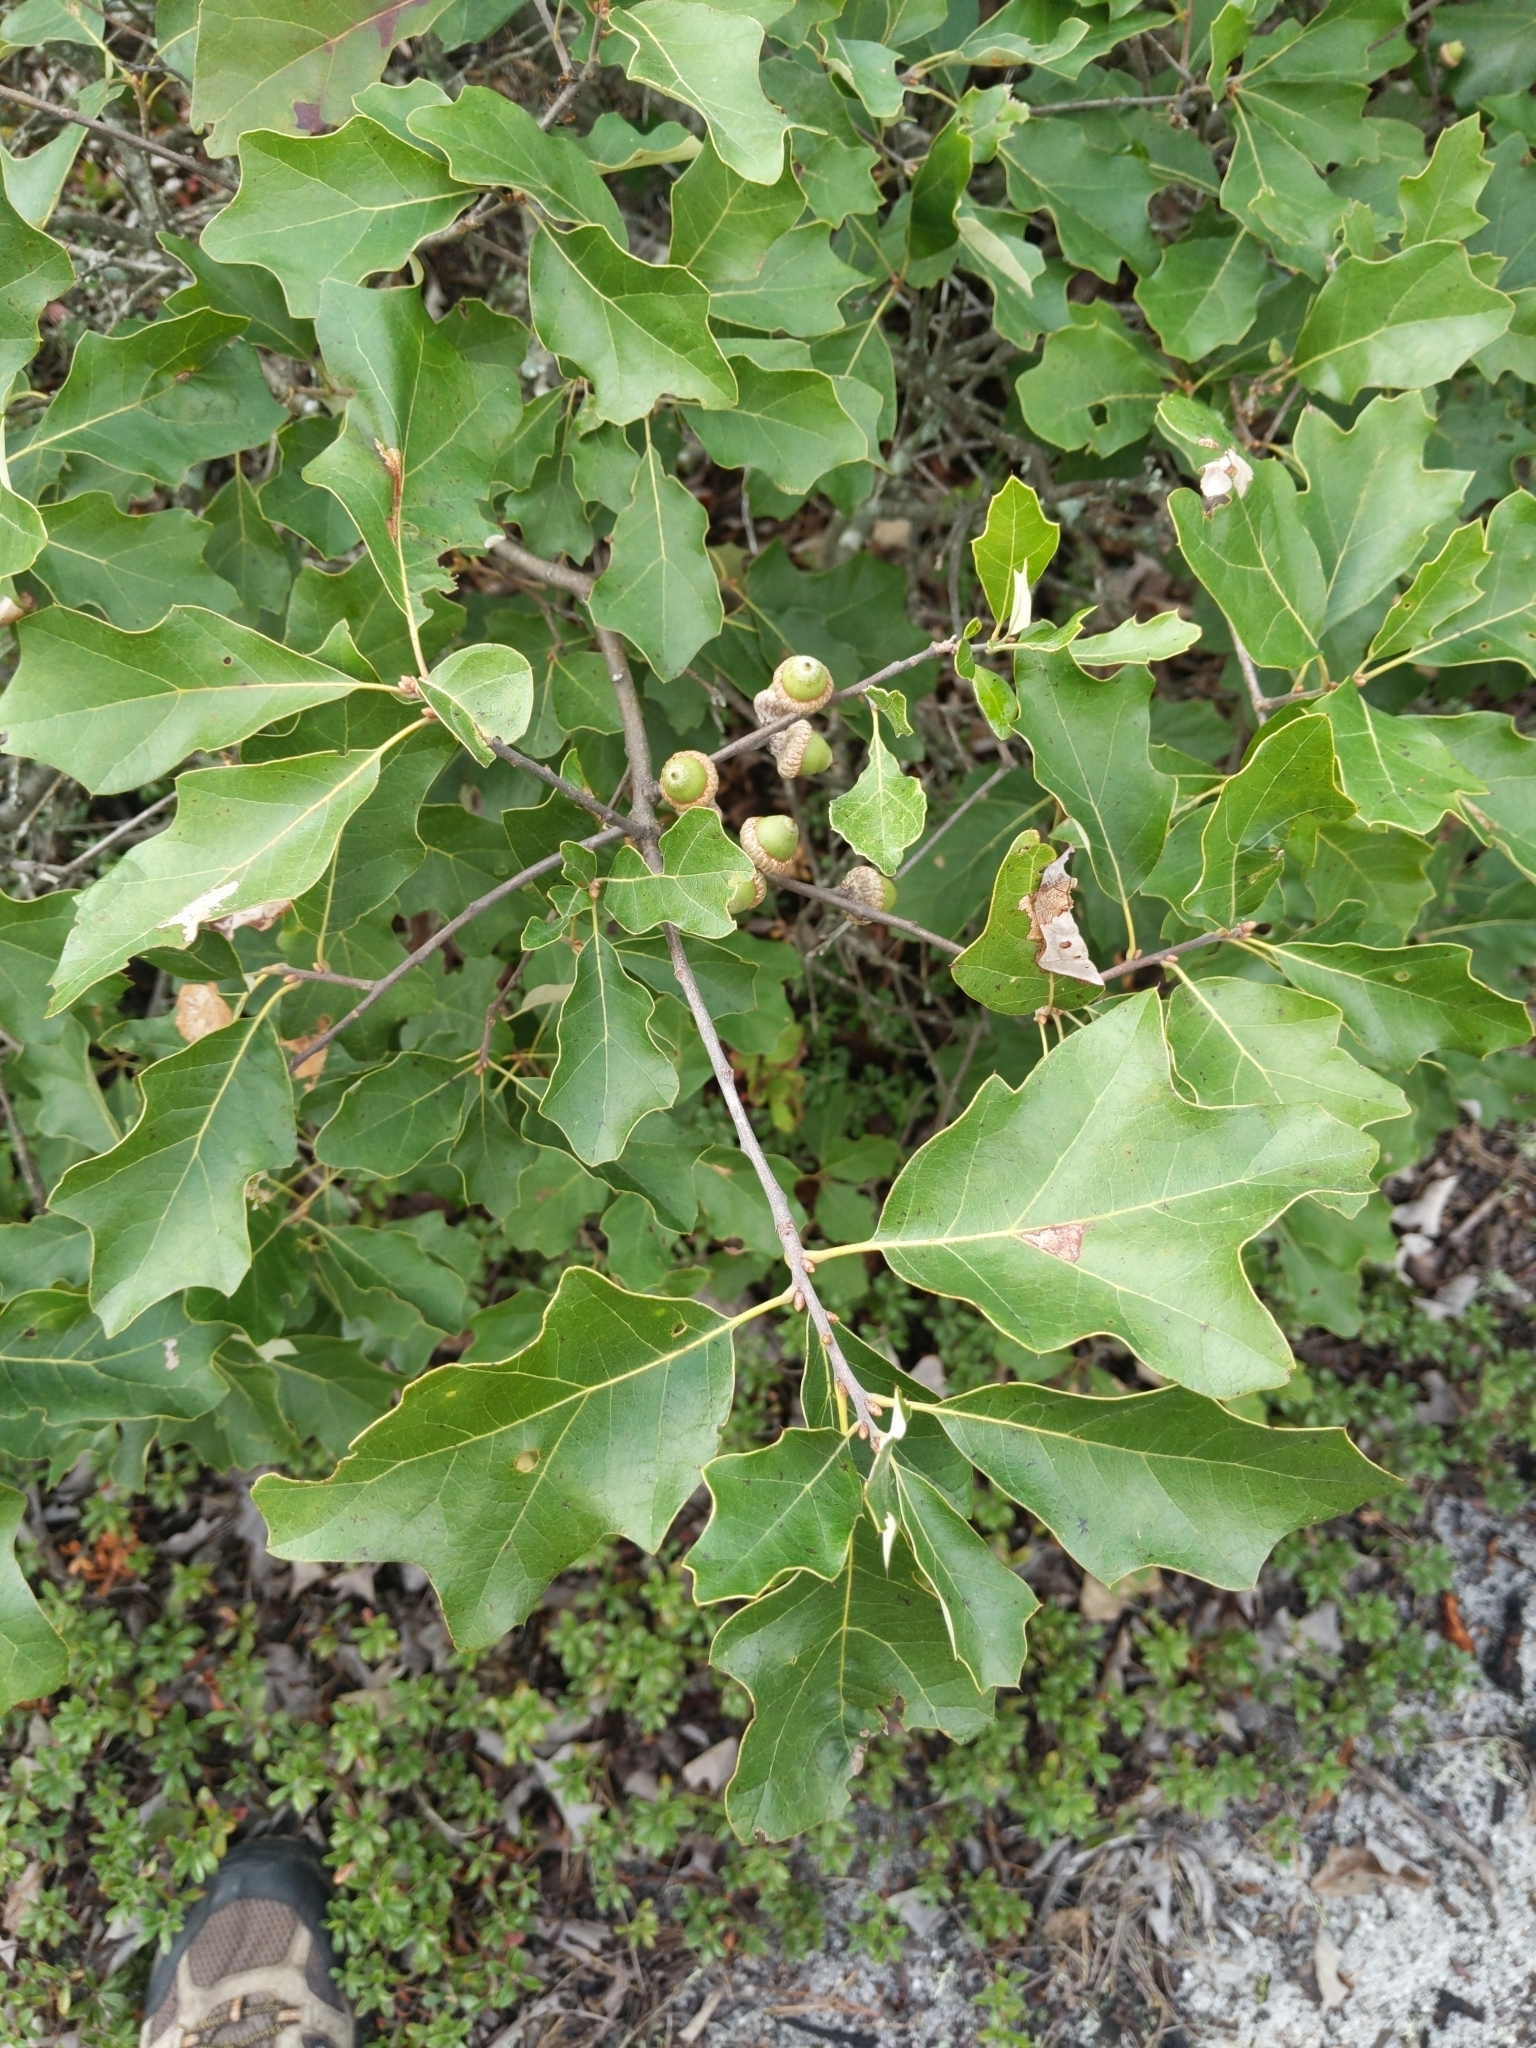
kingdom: Plantae
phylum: Tracheophyta
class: Magnoliopsida
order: Fagales
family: Fagaceae
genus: Quercus
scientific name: Quercus ilicifolia
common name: Bear oak
